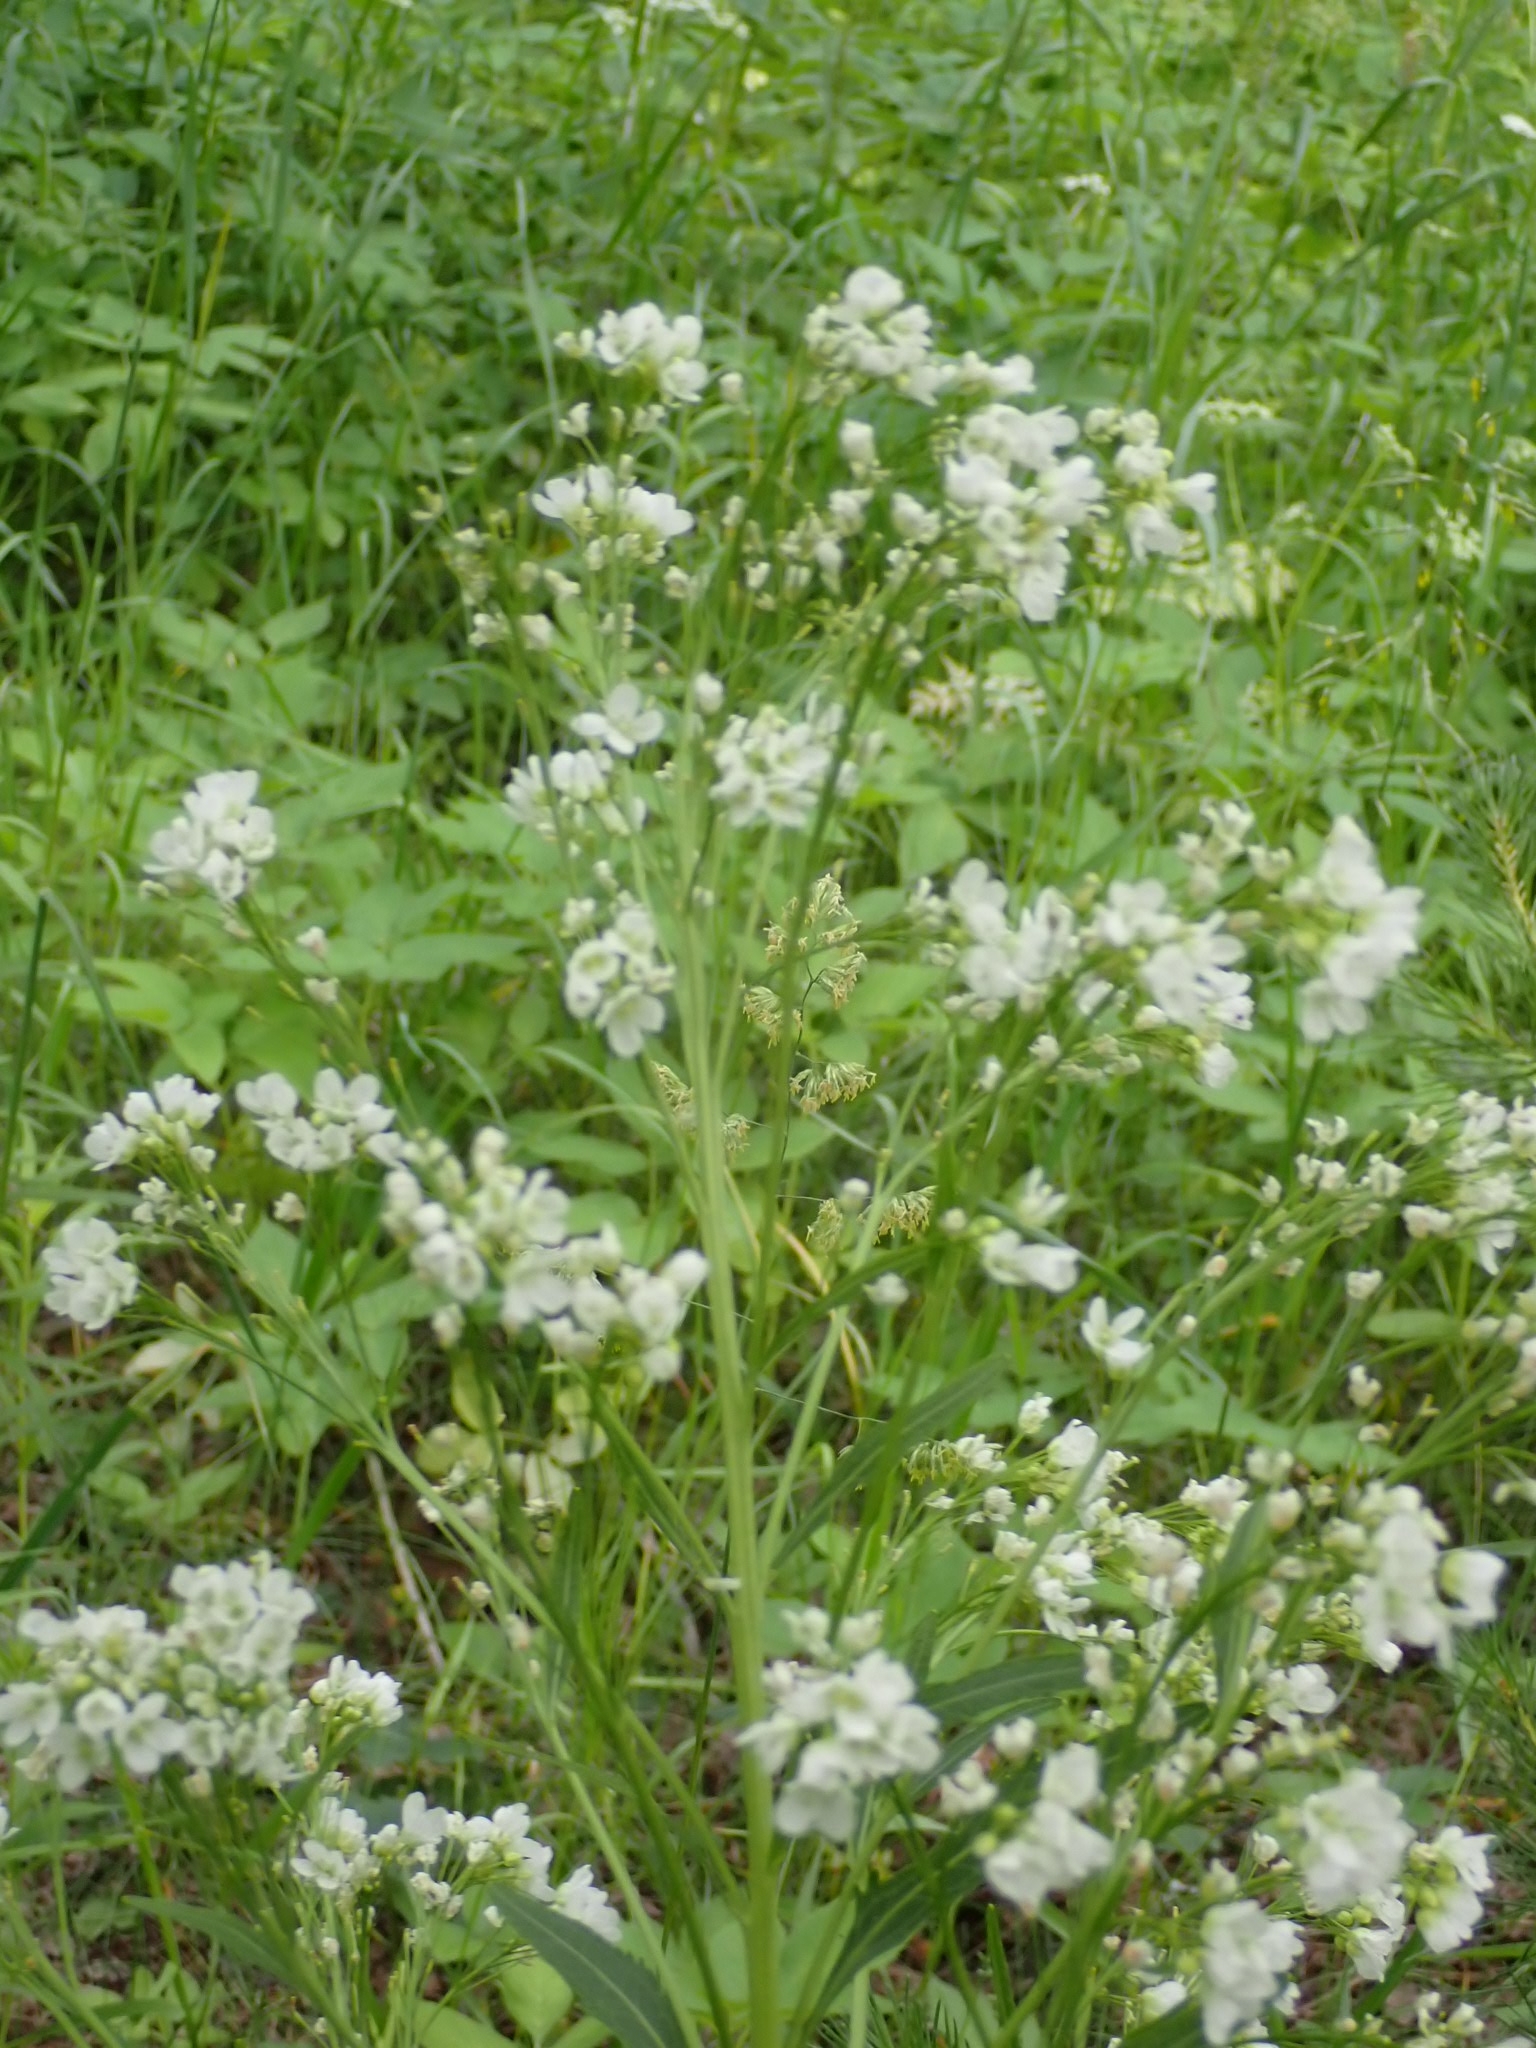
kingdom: Plantae
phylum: Tracheophyta
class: Magnoliopsida
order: Brassicales
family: Brassicaceae
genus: Armoracia
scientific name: Armoracia rusticana
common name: Horseradish
